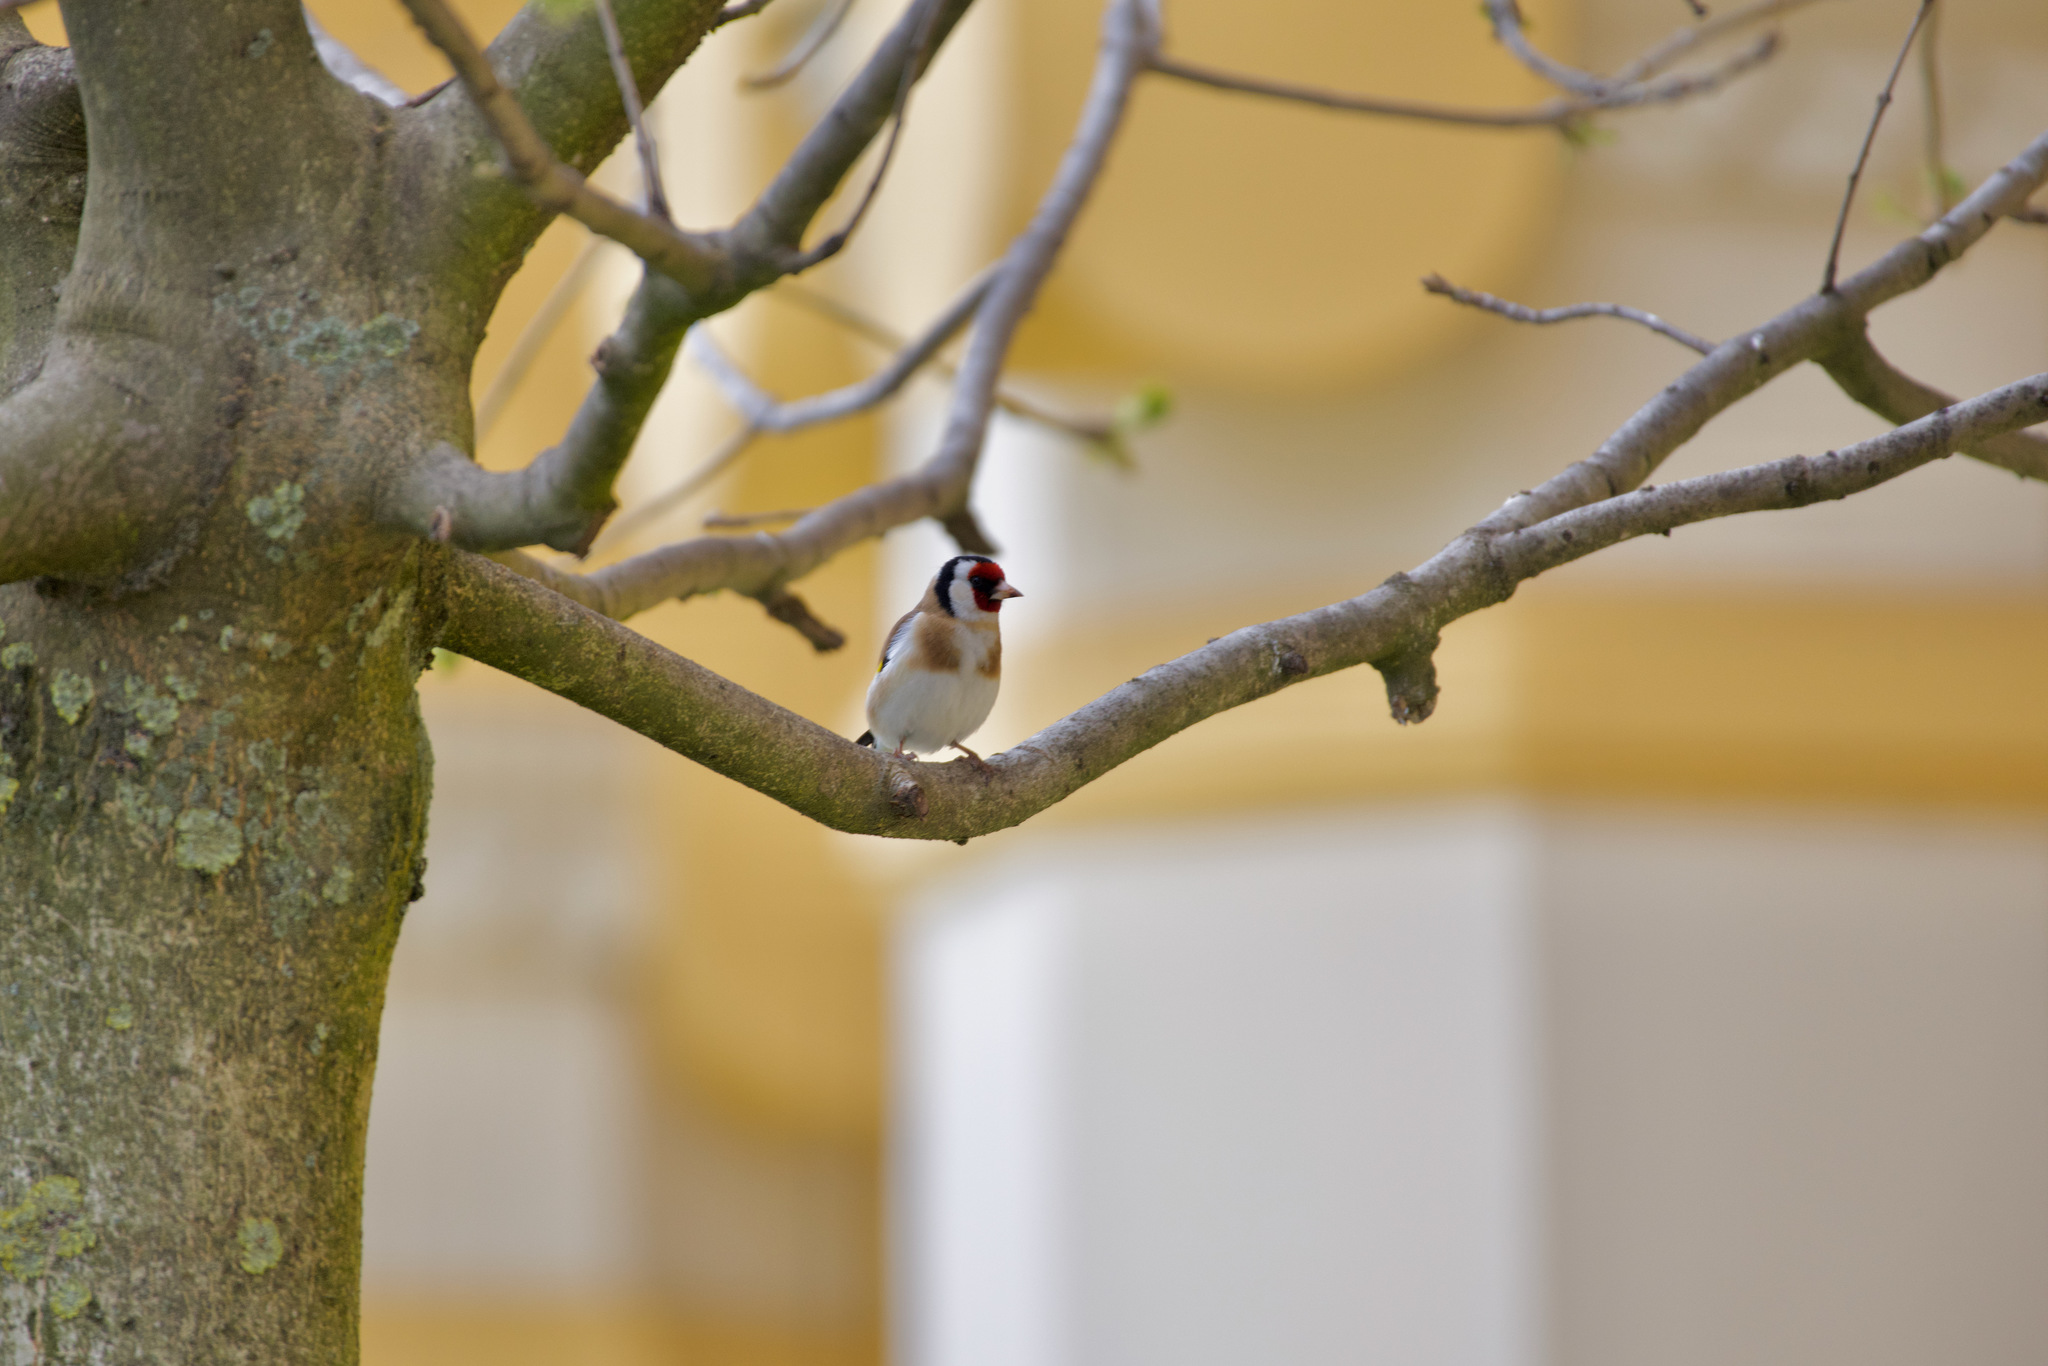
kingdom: Animalia
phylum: Chordata
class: Aves
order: Passeriformes
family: Fringillidae
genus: Carduelis
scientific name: Carduelis carduelis
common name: European goldfinch
